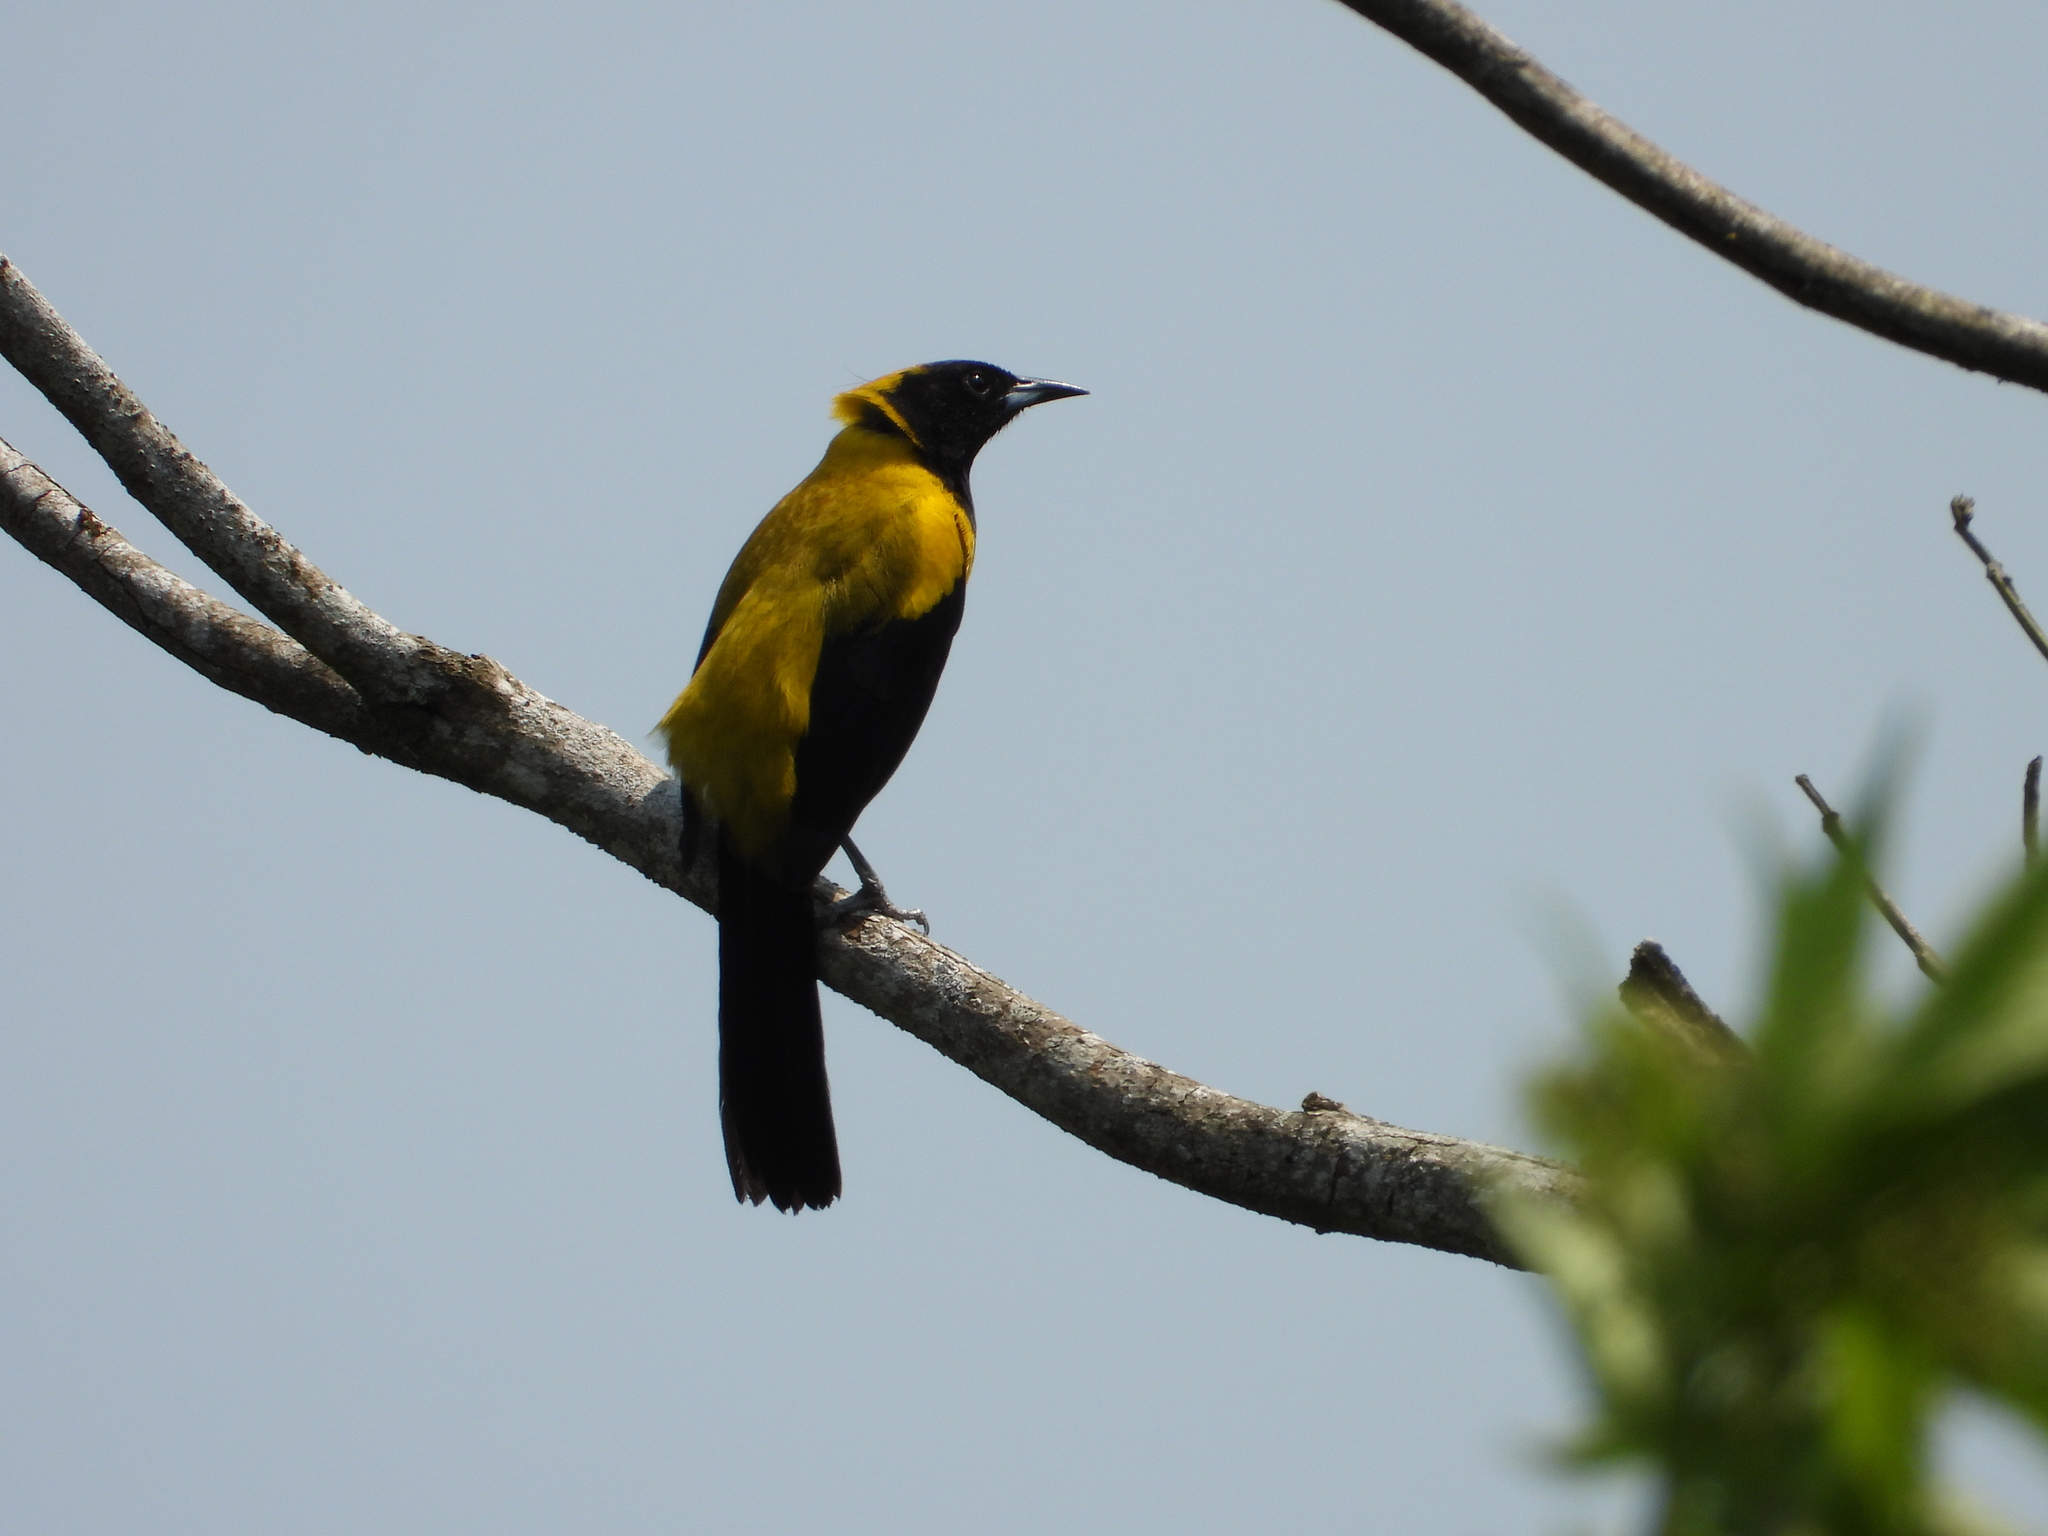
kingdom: Animalia
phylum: Chordata
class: Aves
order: Passeriformes
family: Icteridae
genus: Icterus
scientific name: Icterus prosthemelas
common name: Black-cowled oriole
